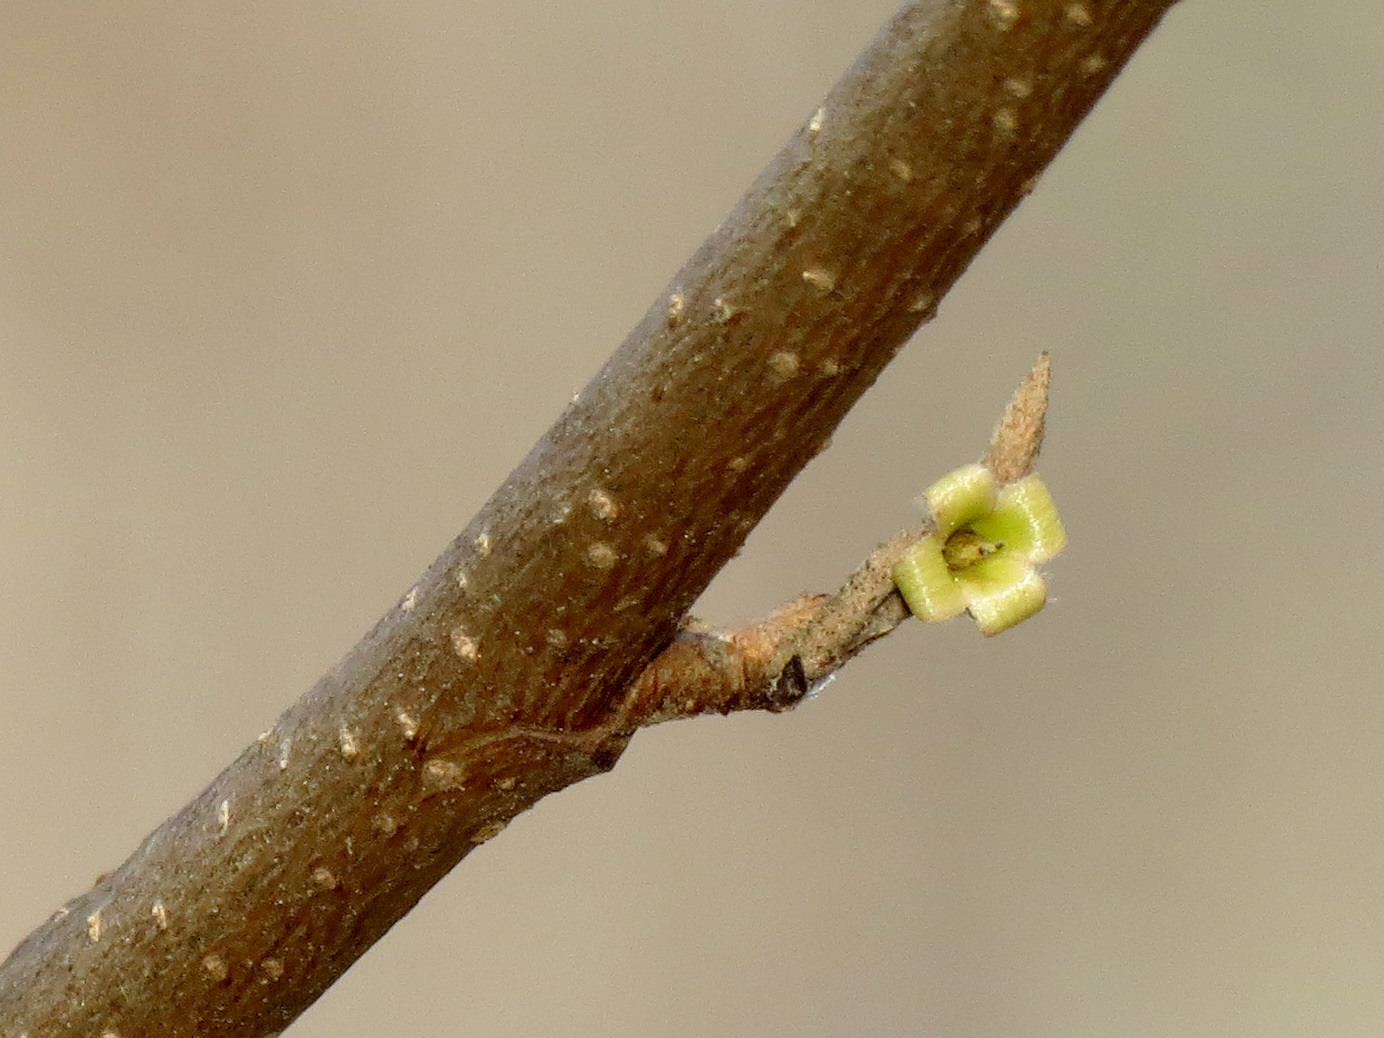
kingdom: Plantae
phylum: Tracheophyta
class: Magnoliopsida
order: Saxifragales
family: Hamamelidaceae
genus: Hamamelis
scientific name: Hamamelis virginiana
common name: Witch-hazel
